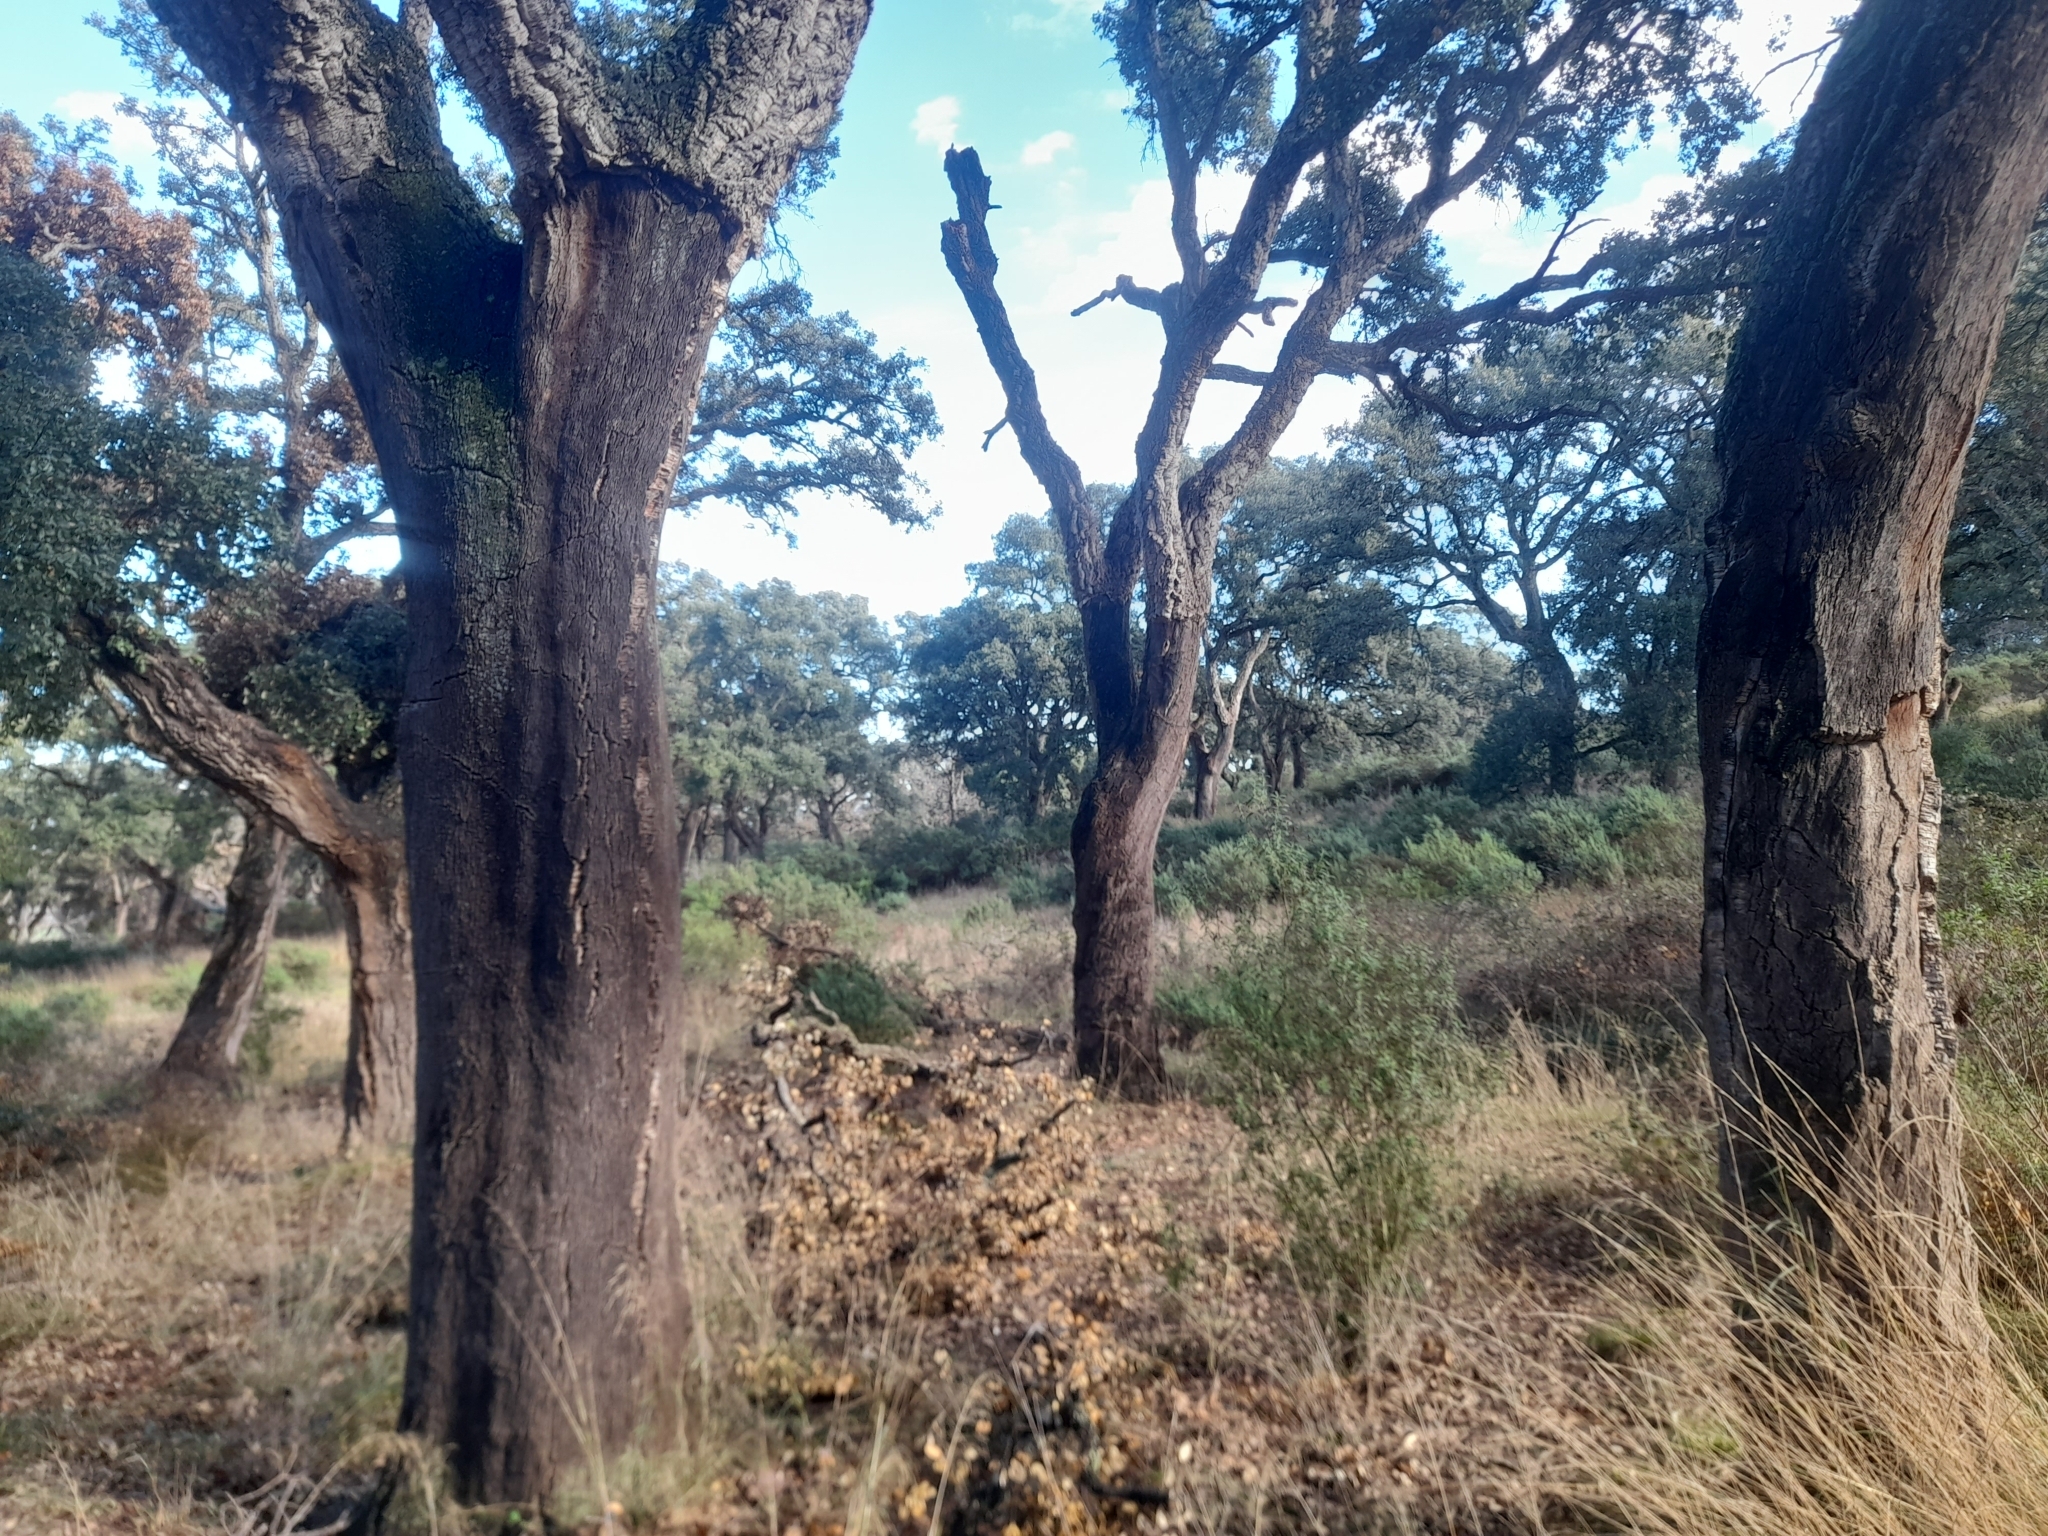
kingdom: Plantae
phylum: Tracheophyta
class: Magnoliopsida
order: Fagales
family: Fagaceae
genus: Quercus
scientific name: Quercus suber
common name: Cork oak
